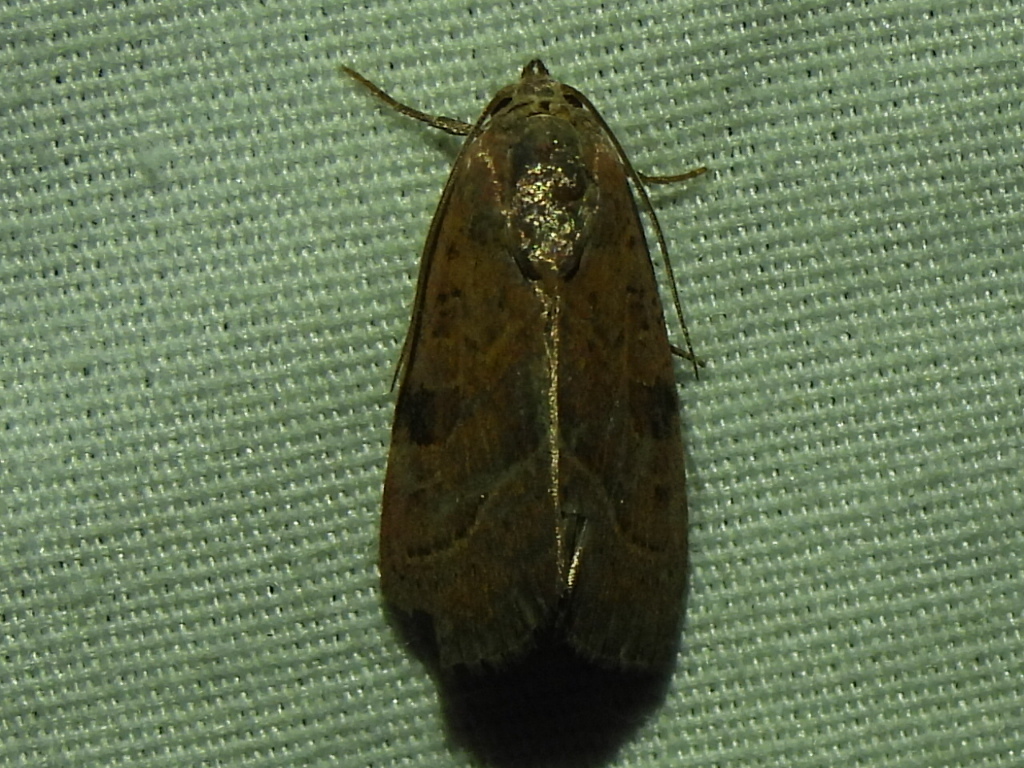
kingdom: Animalia
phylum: Arthropoda
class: Insecta
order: Lepidoptera
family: Noctuidae
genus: Galgula
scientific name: Galgula partita
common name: Wedgeling
